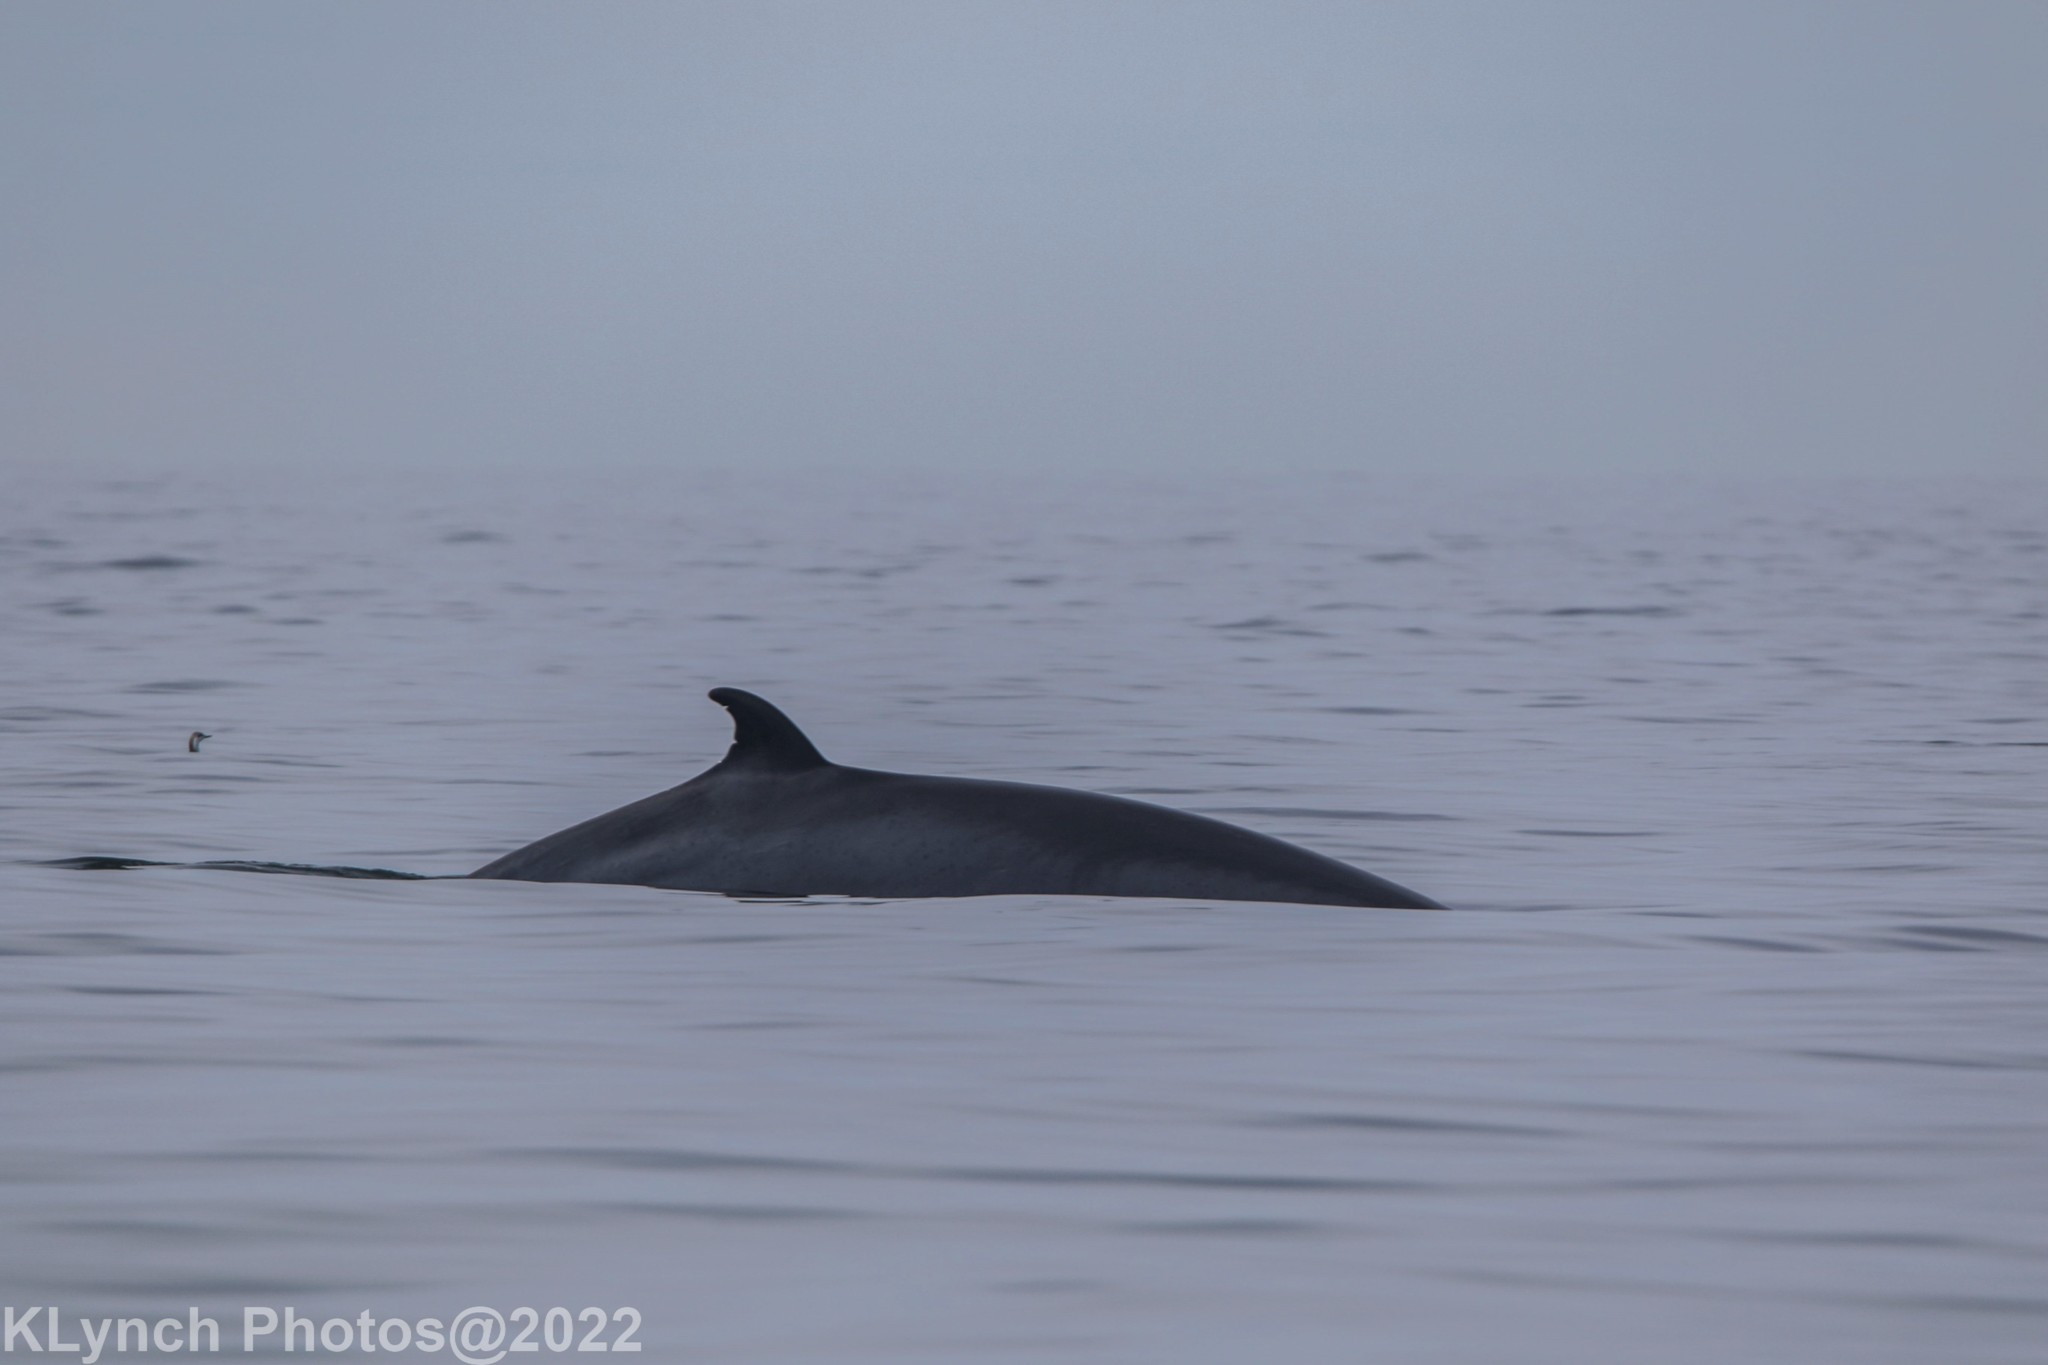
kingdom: Animalia
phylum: Chordata
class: Mammalia
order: Cetacea
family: Balaenopteridae
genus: Balaenoptera
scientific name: Balaenoptera acutorostrata
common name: Common minke whale
